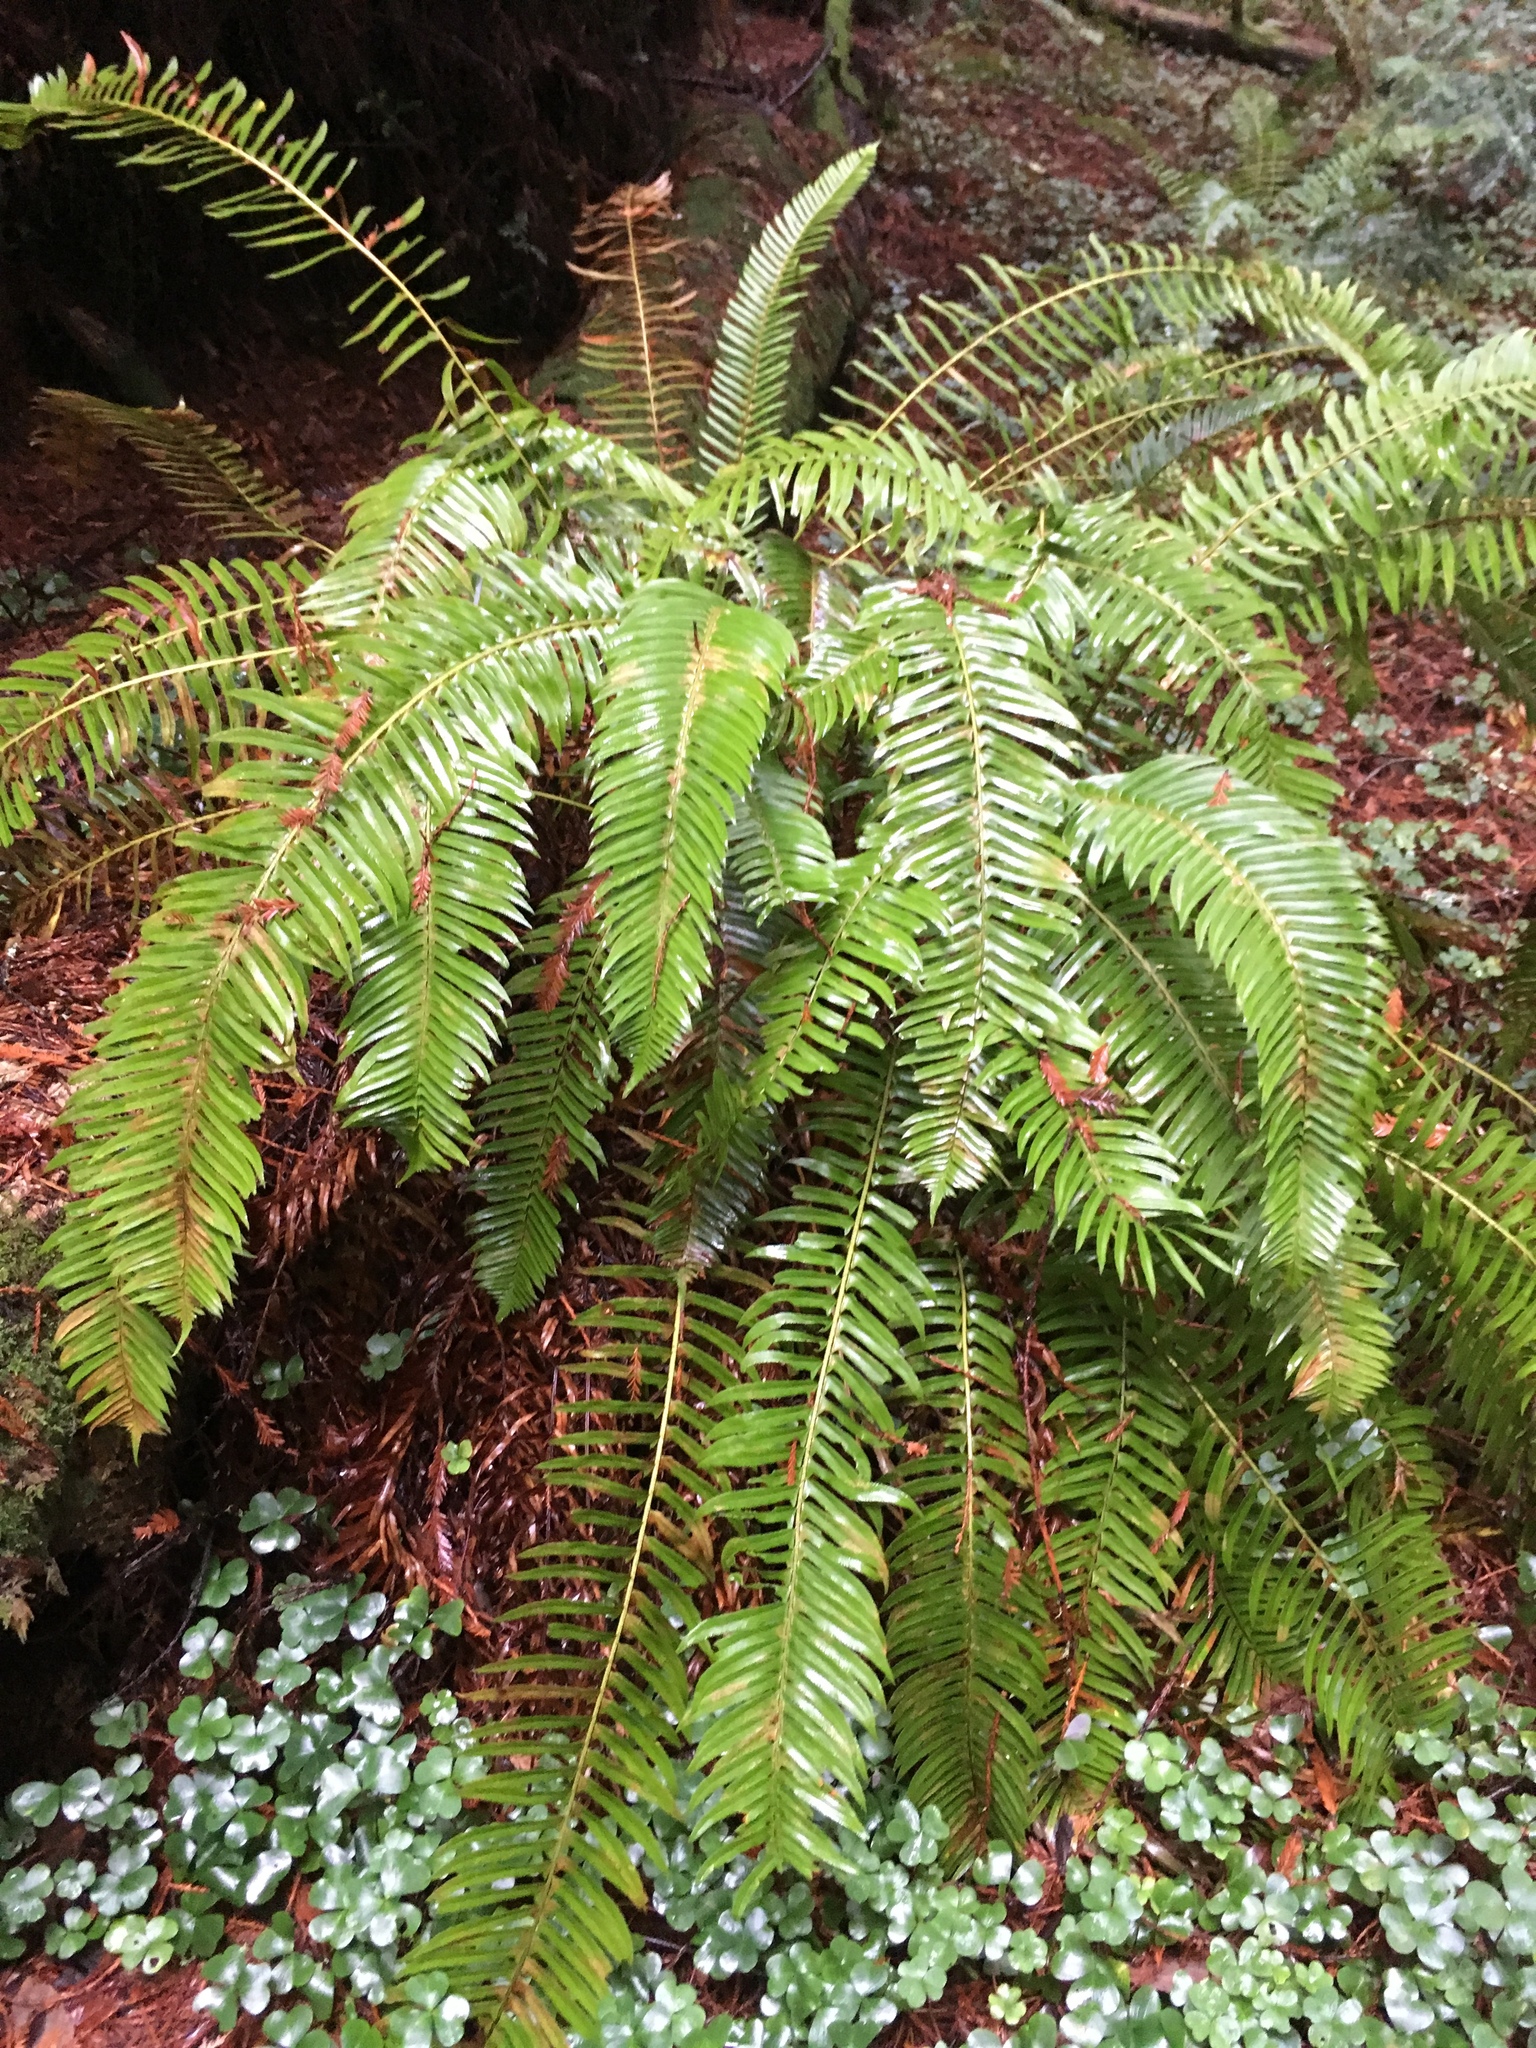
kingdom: Plantae
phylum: Tracheophyta
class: Polypodiopsida
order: Polypodiales
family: Dryopteridaceae
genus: Polystichum
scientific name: Polystichum munitum
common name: Western sword-fern
